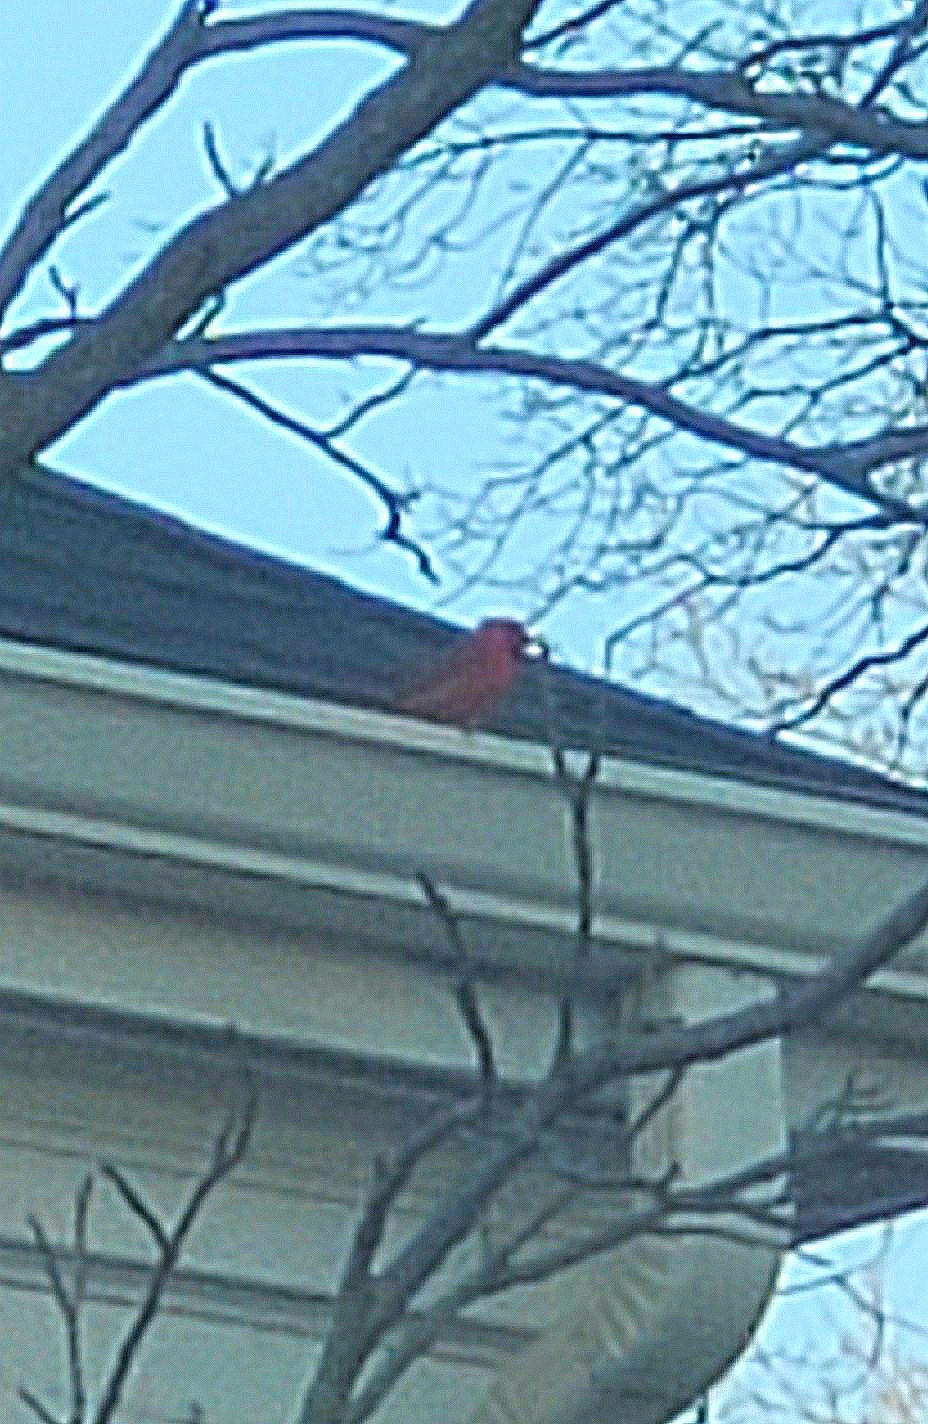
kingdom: Animalia
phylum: Chordata
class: Aves
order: Passeriformes
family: Cardinalidae
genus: Cardinalis
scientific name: Cardinalis cardinalis
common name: Northern cardinal
